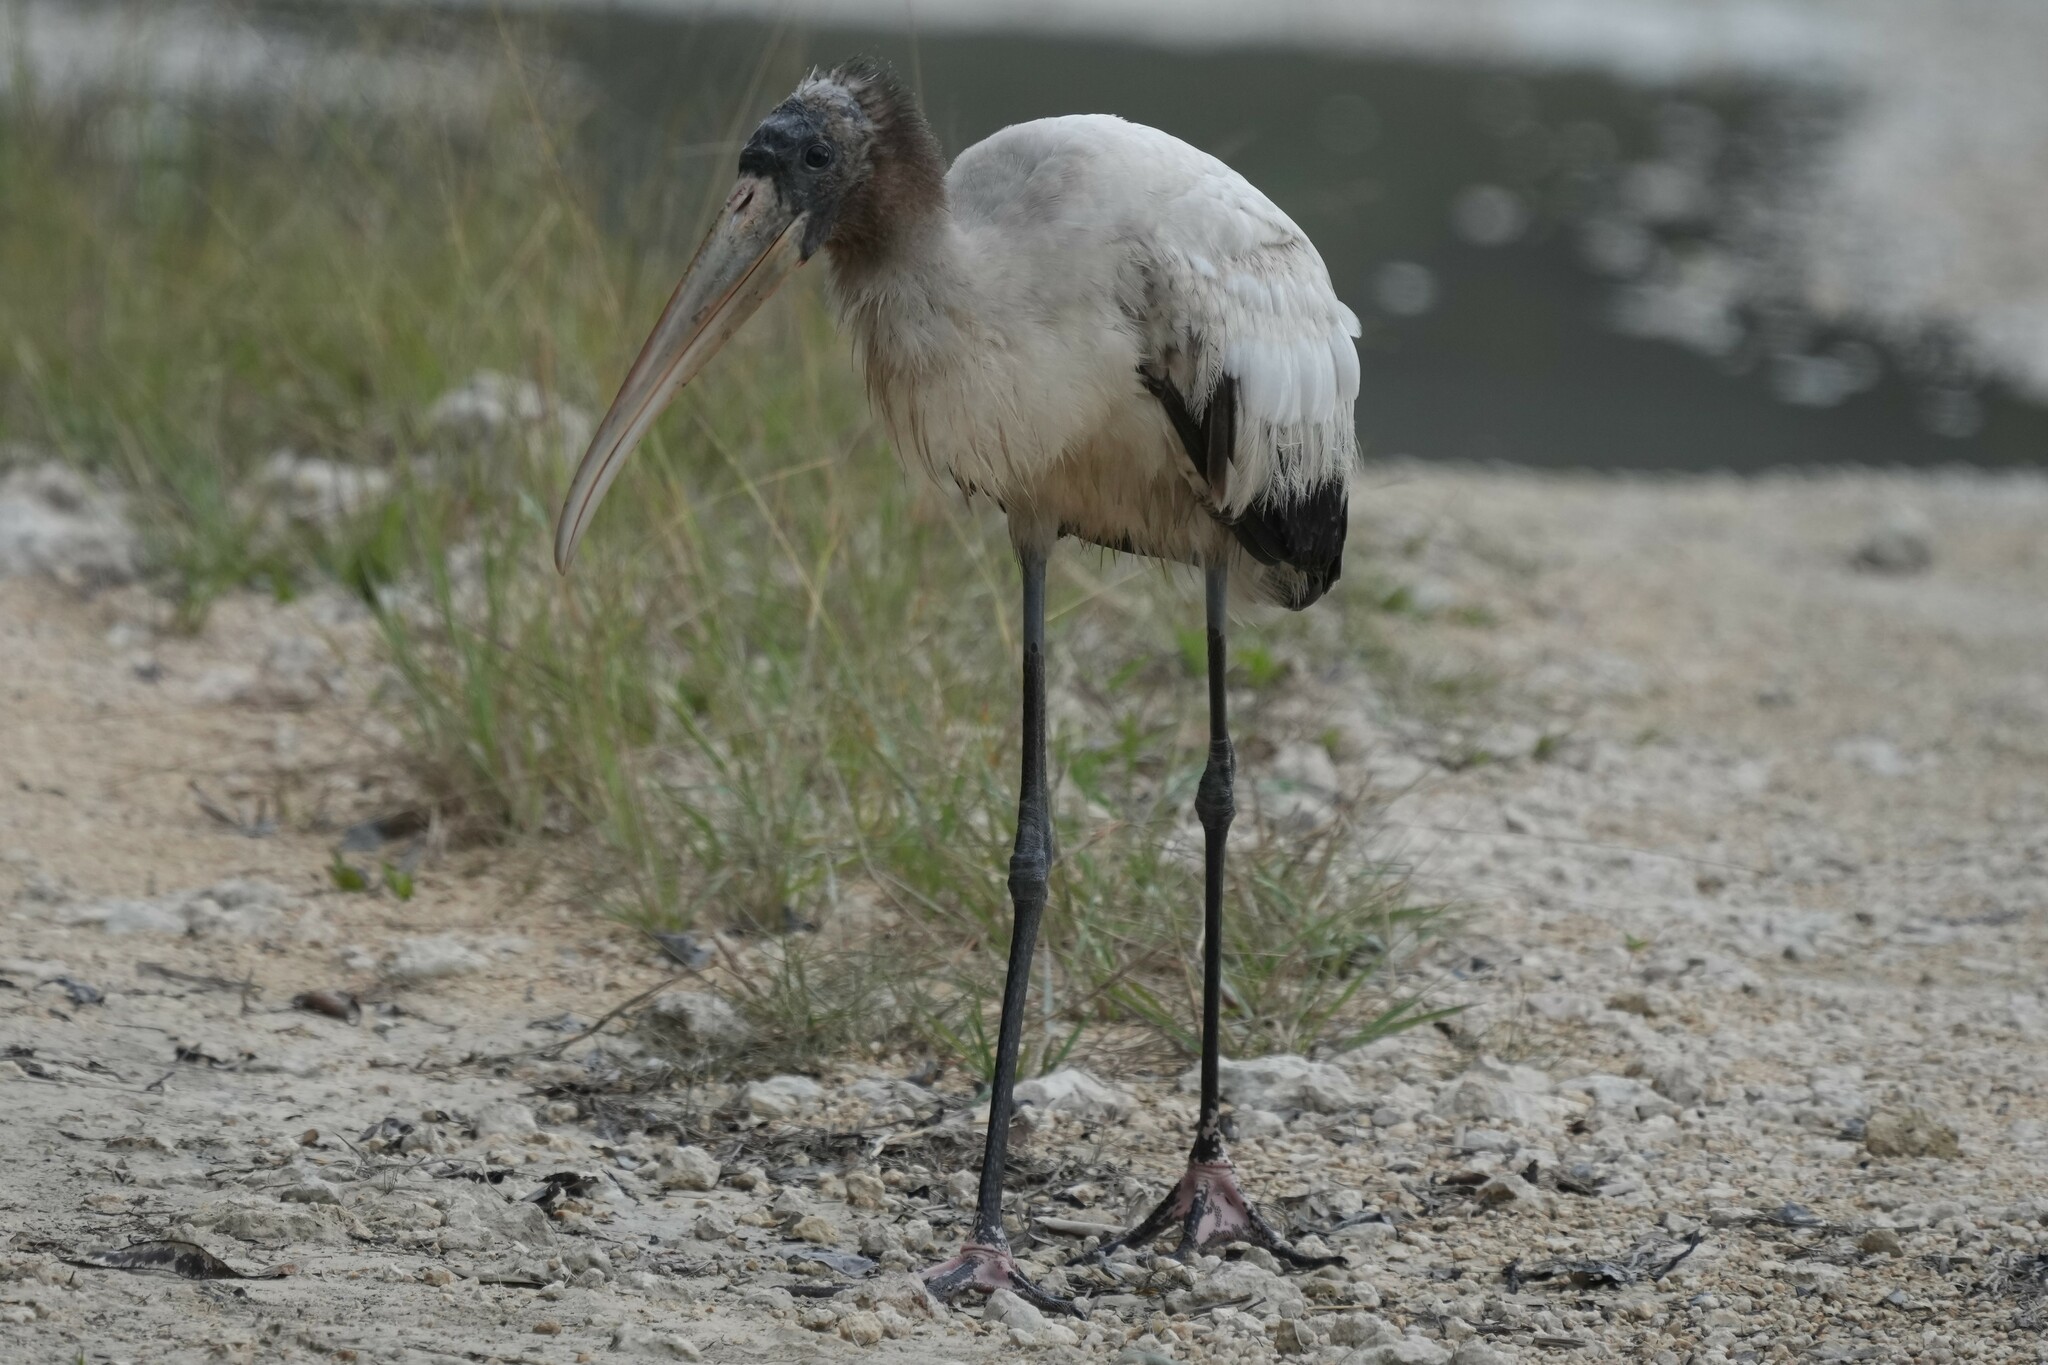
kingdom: Animalia
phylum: Chordata
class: Aves
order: Ciconiiformes
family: Ciconiidae
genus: Mycteria
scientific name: Mycteria americana
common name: Wood stork
